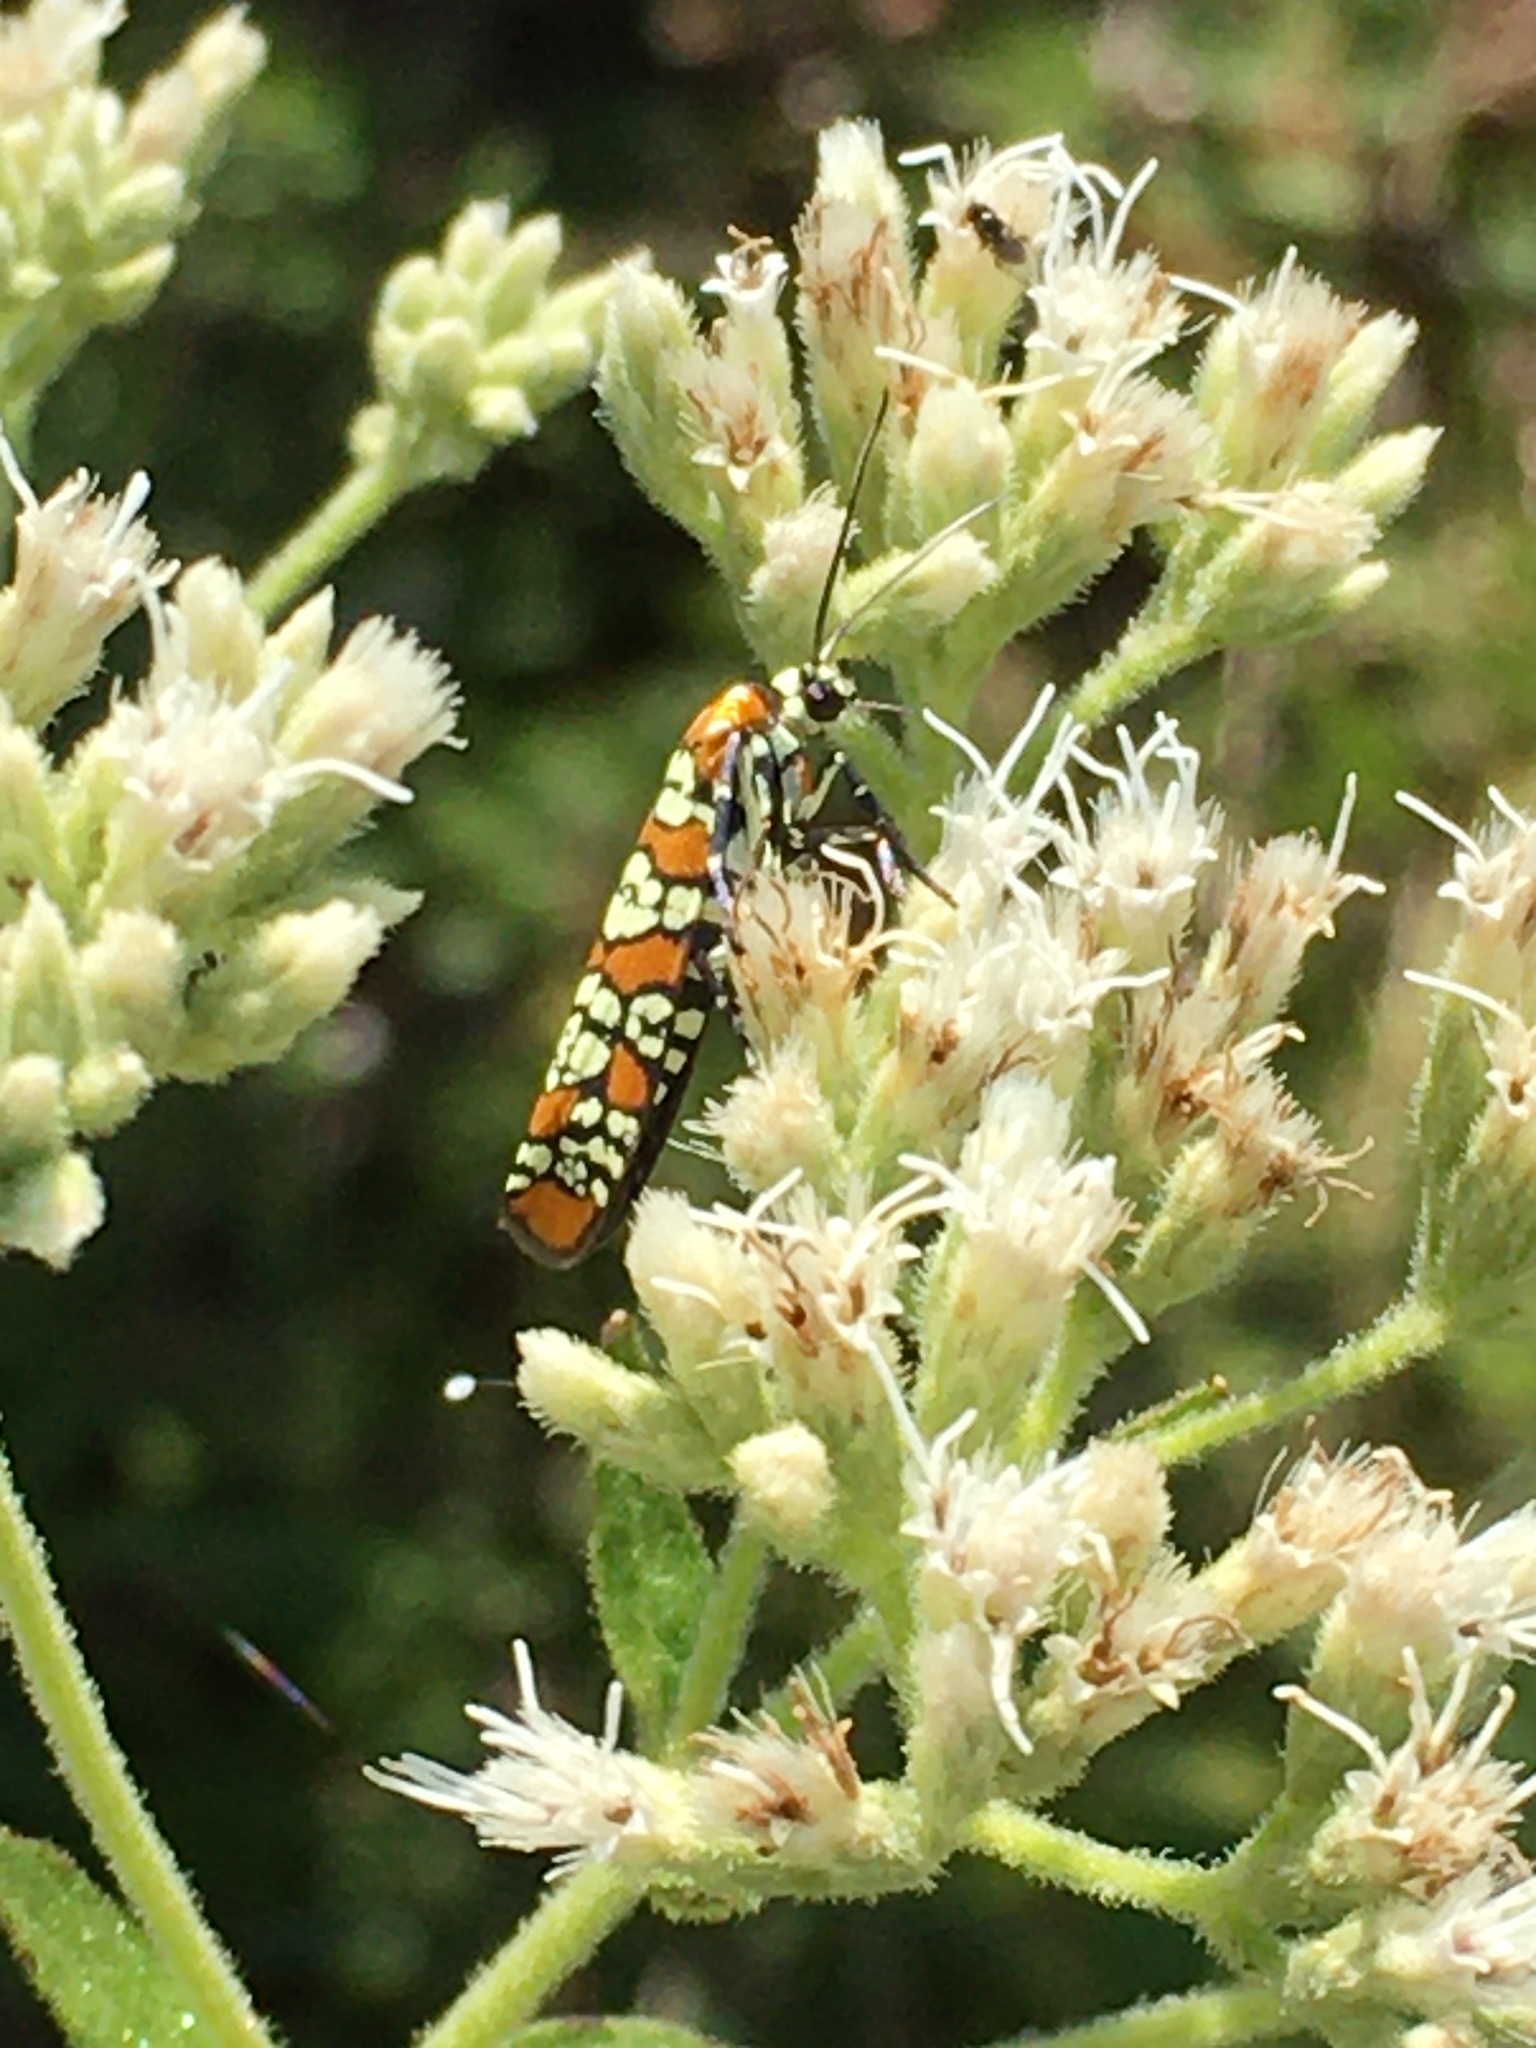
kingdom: Animalia
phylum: Arthropoda
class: Insecta
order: Lepidoptera
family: Attevidae
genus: Atteva
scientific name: Atteva punctella
